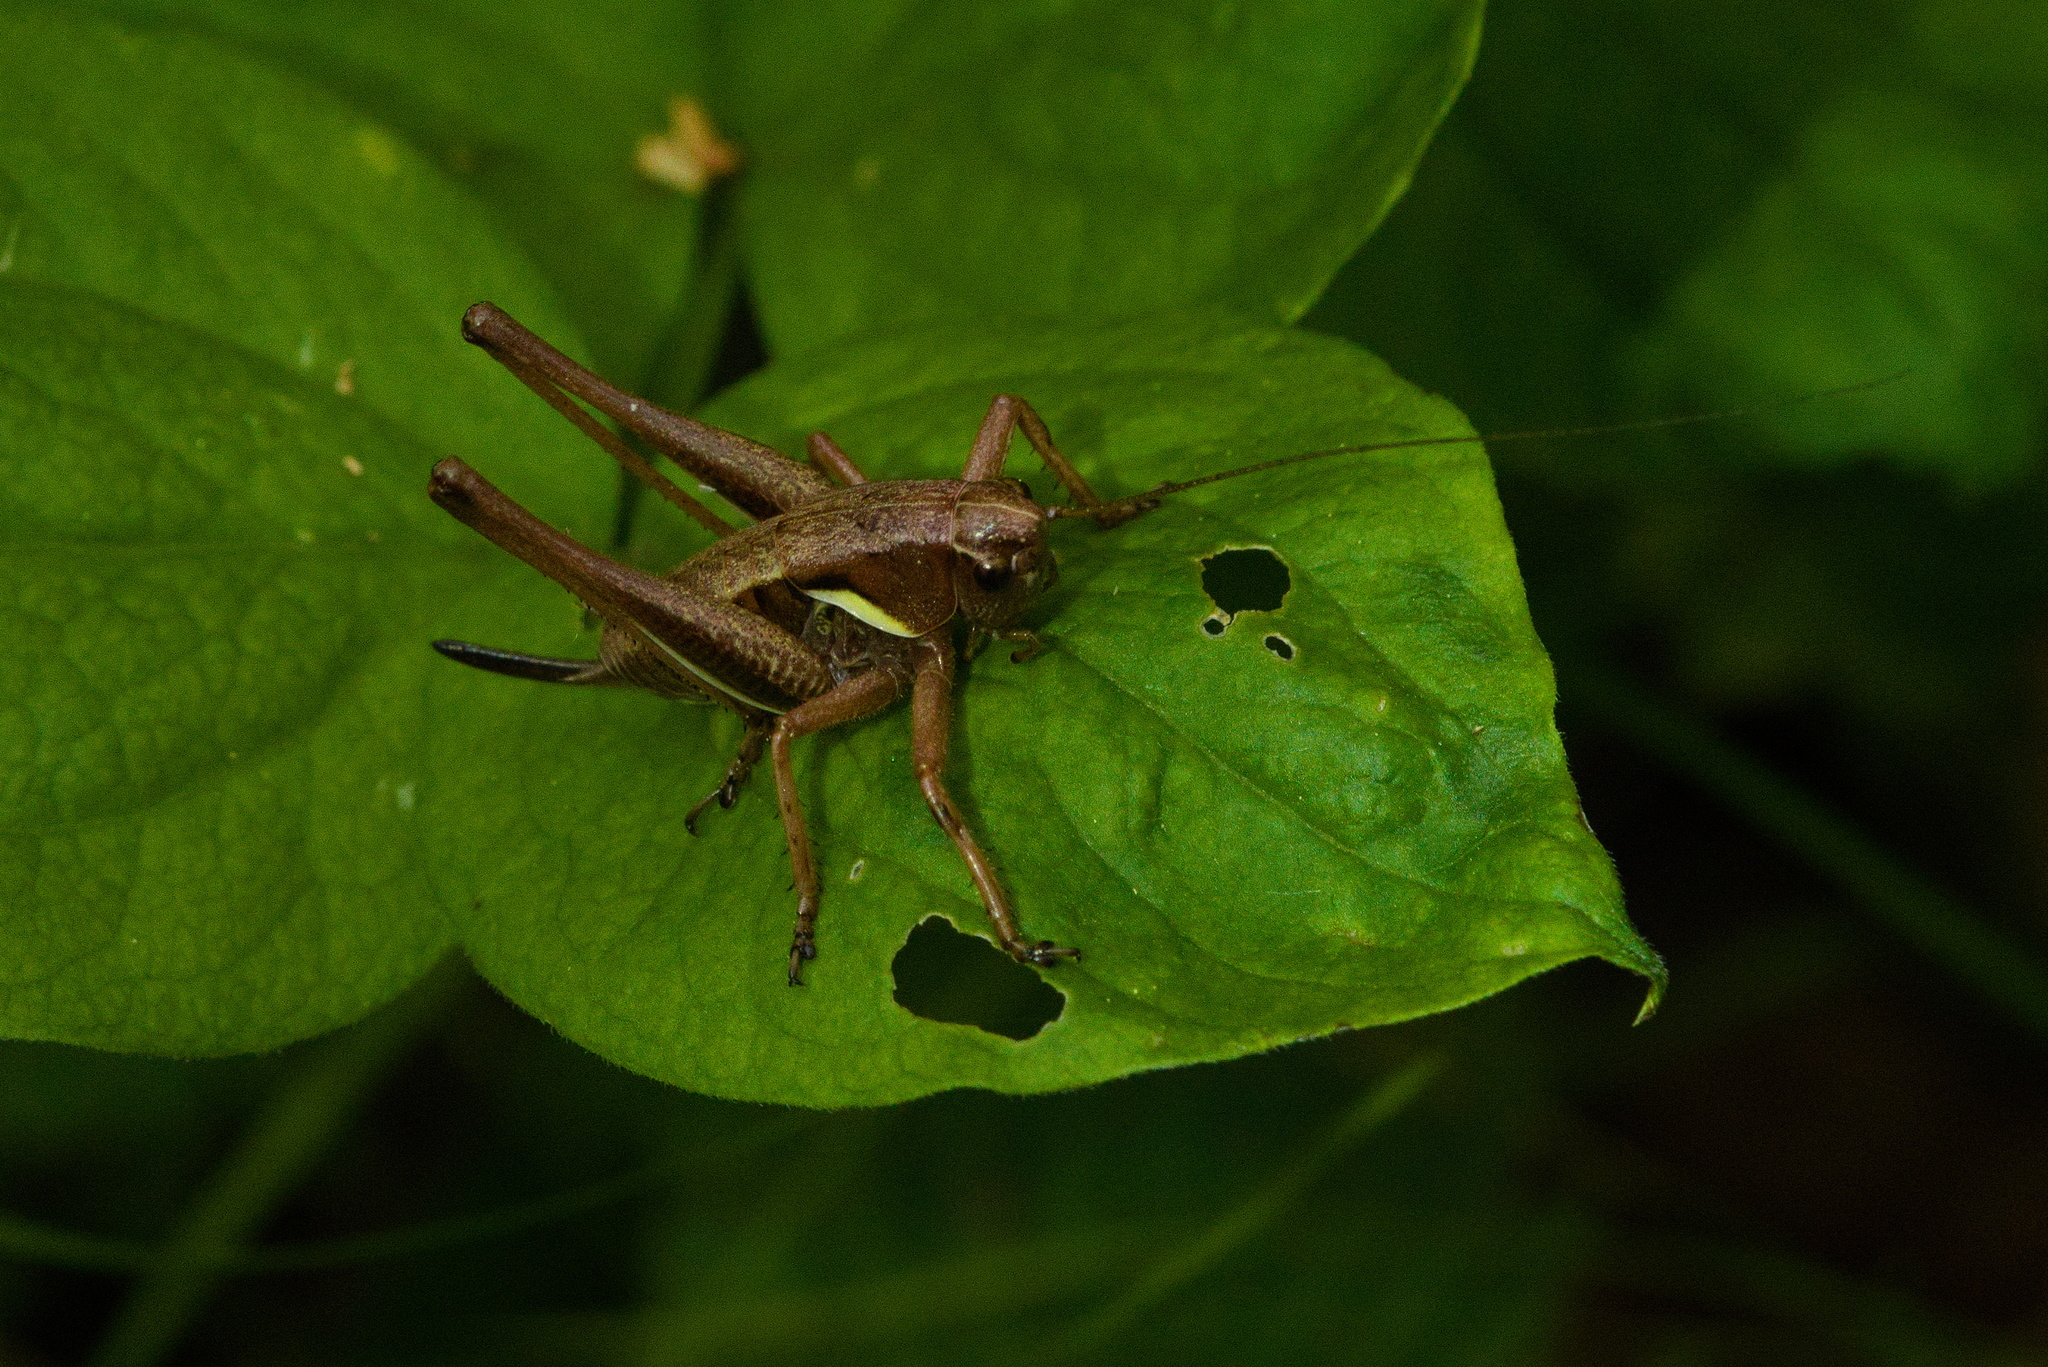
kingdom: Animalia
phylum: Arthropoda
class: Insecta
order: Orthoptera
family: Tettigoniidae
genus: Pholidoptera
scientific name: Pholidoptera aptera
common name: Alpine dark bush-cricket
